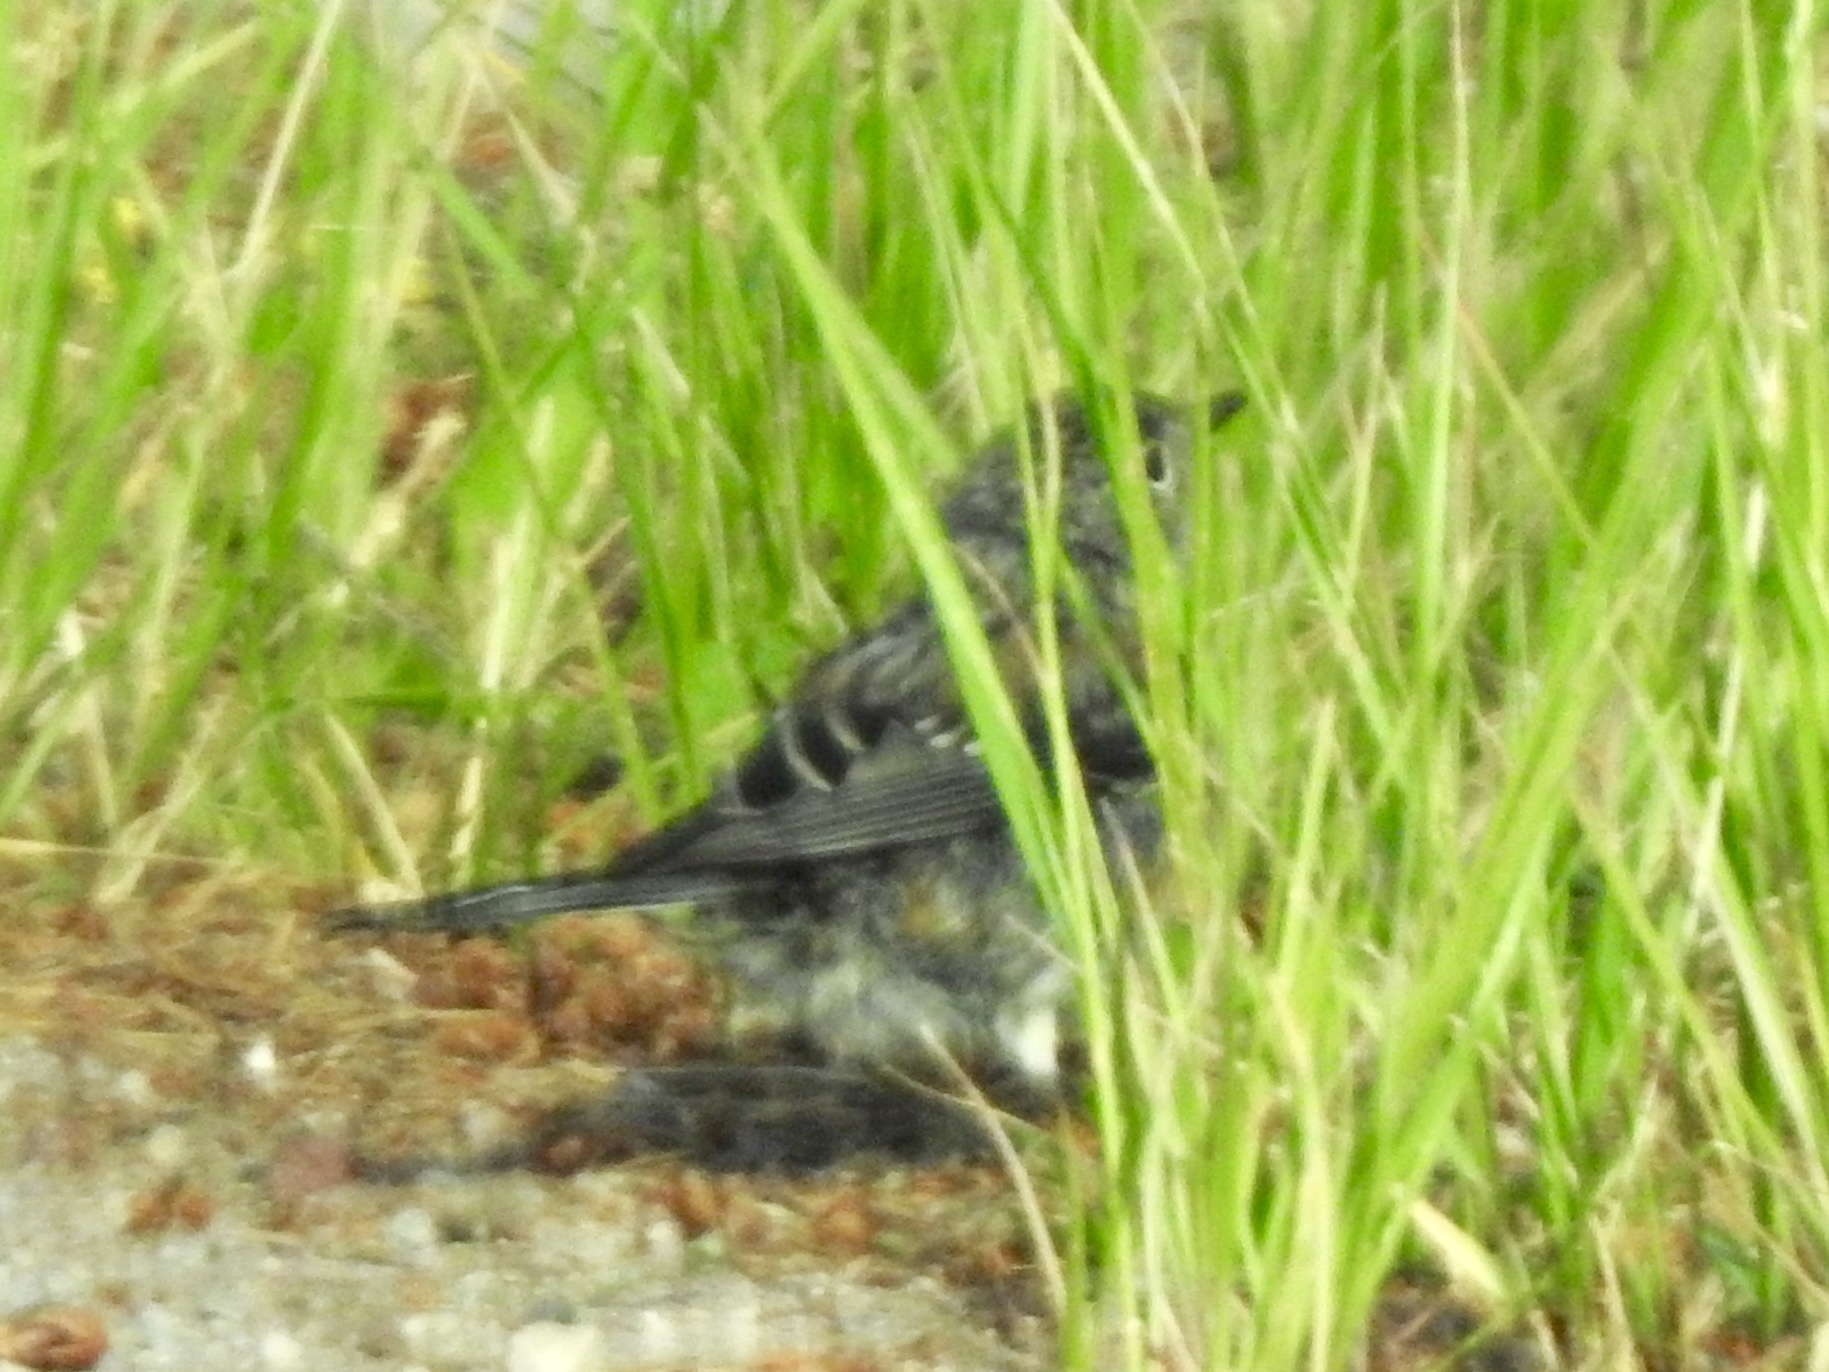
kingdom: Animalia
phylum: Chordata
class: Aves
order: Passeriformes
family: Parulidae
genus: Setophaga
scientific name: Setophaga coronata
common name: Myrtle warbler
